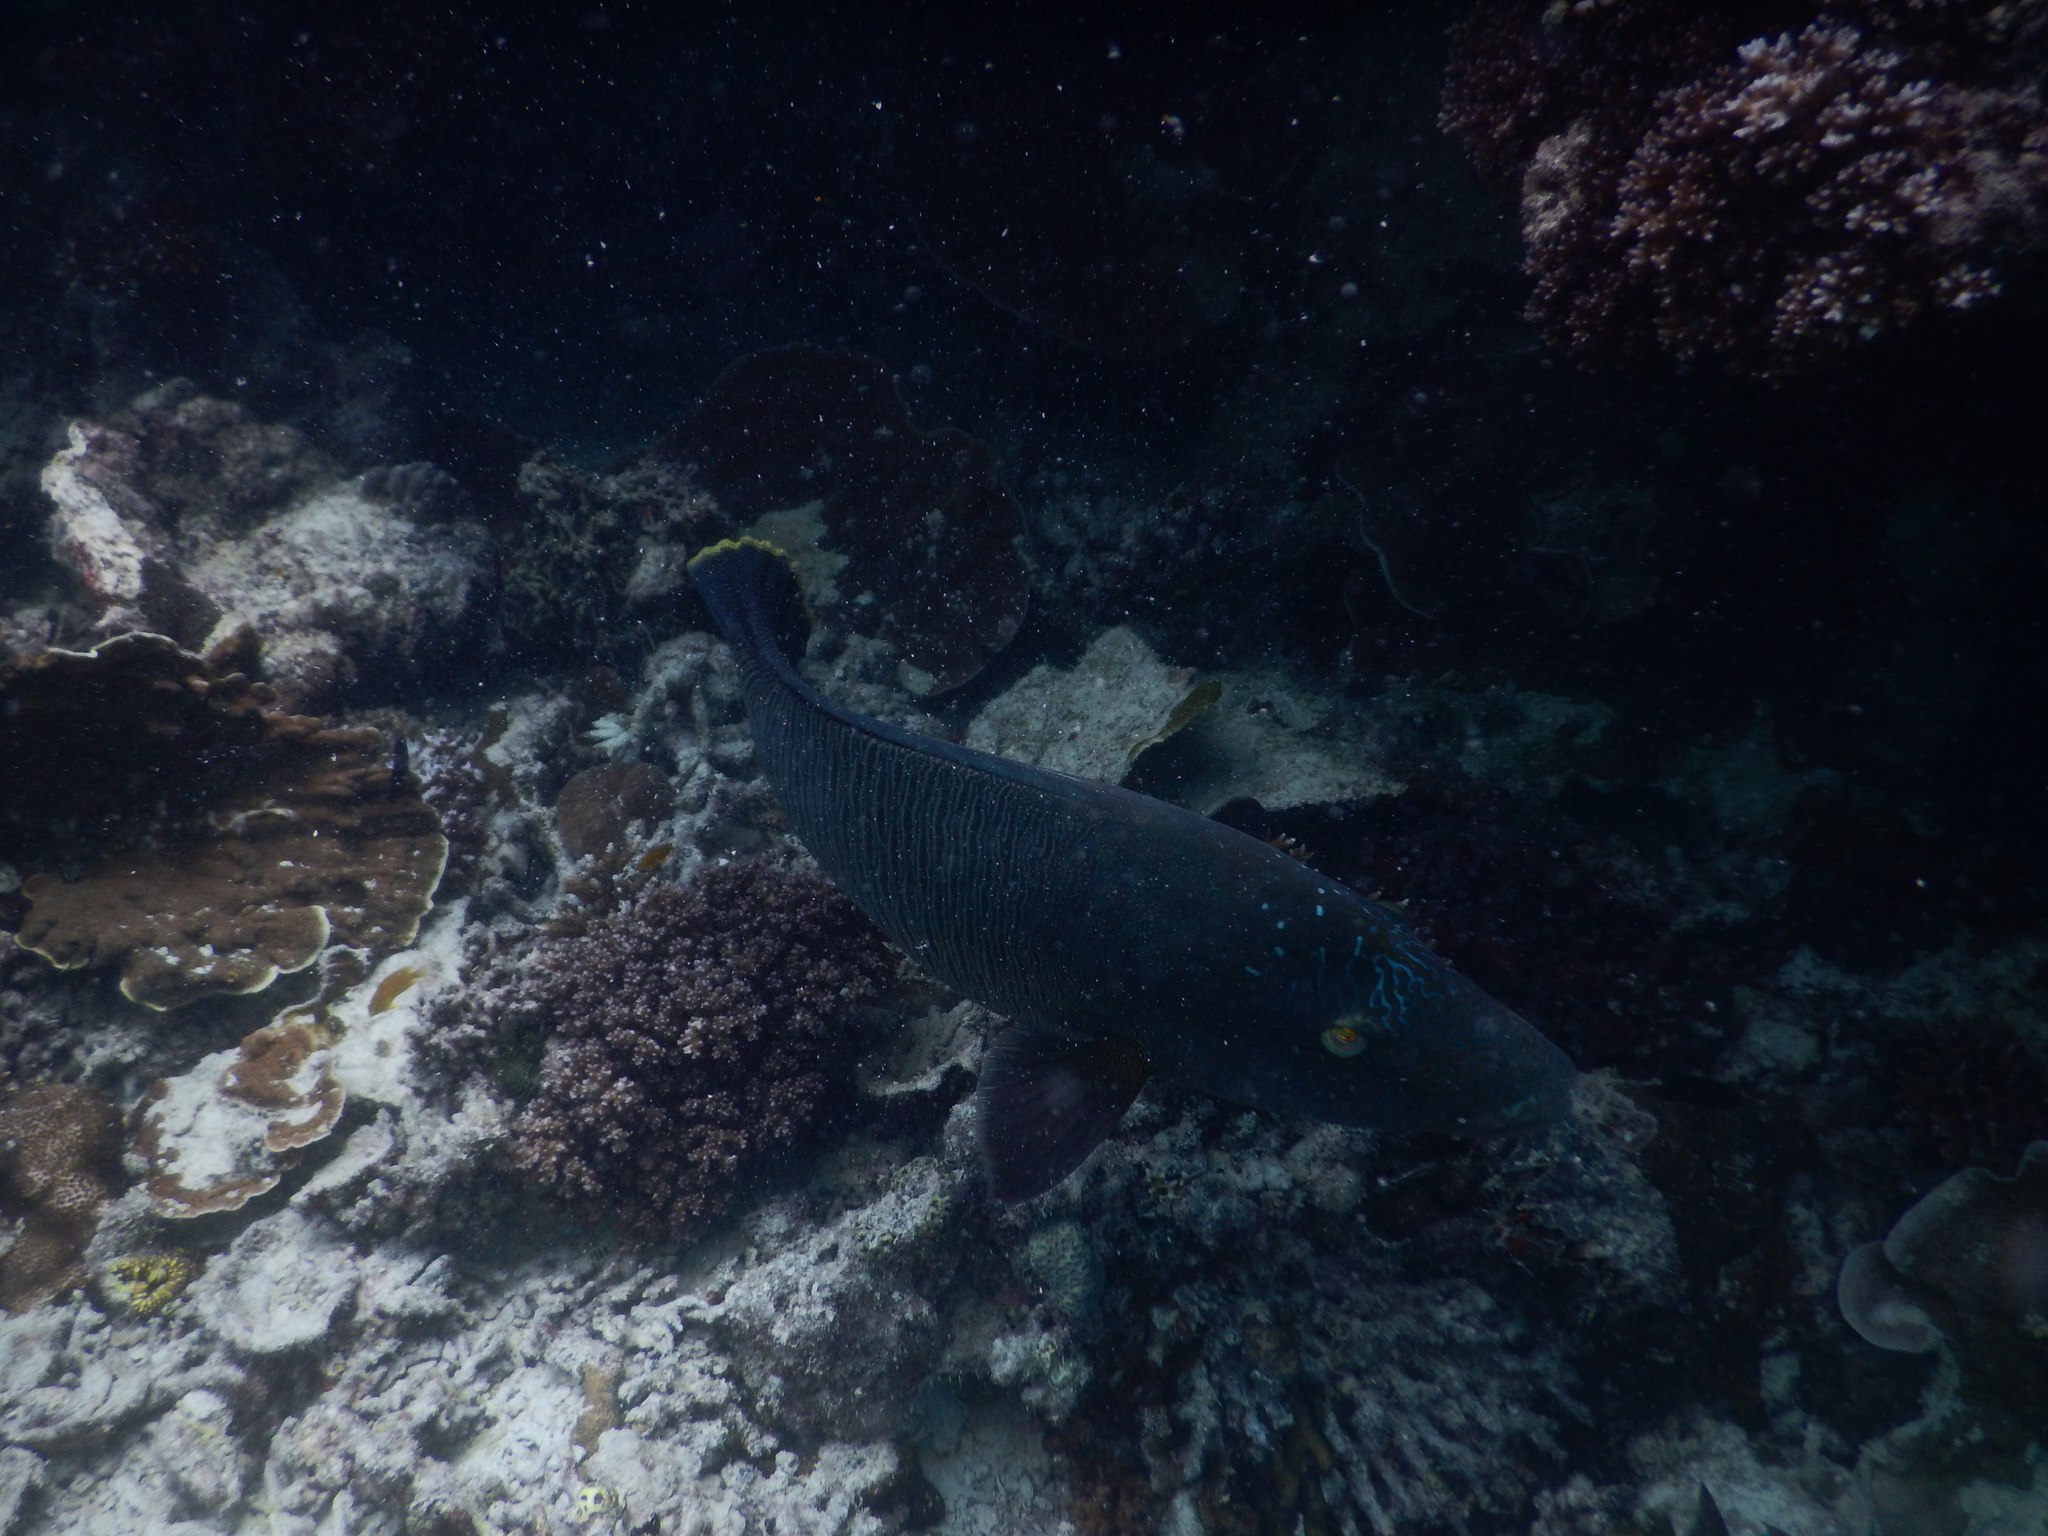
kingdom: Animalia
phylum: Chordata
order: Perciformes
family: Labridae
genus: Cheilinus
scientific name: Cheilinus undulatus
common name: Humphead wrasse
